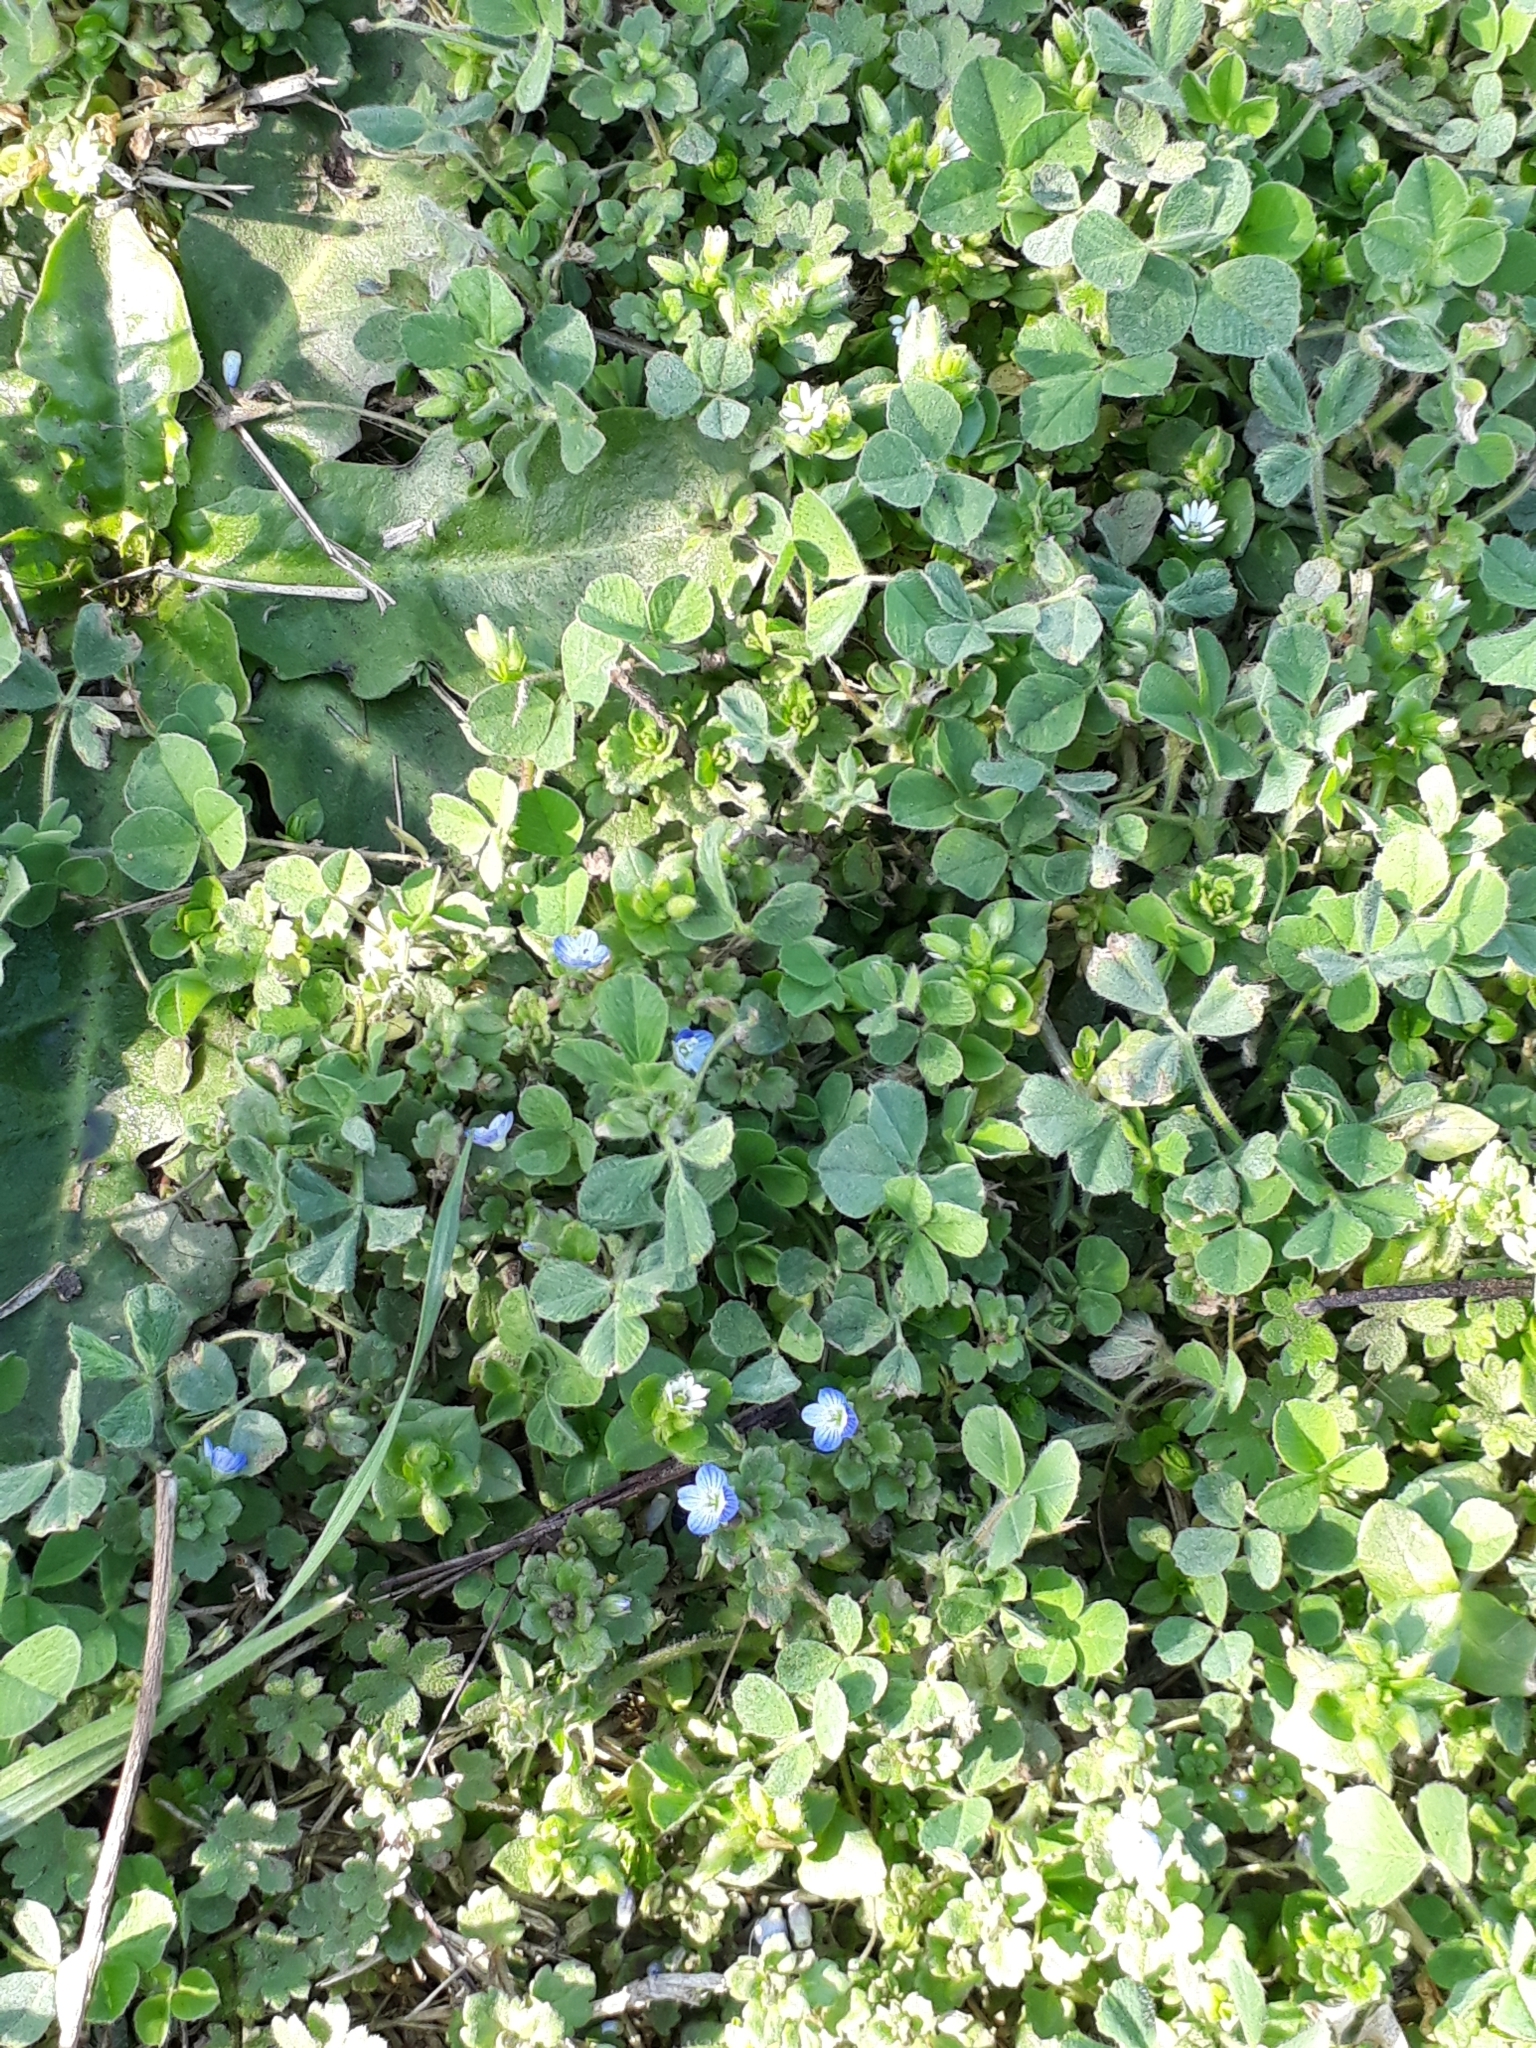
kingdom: Plantae
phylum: Tracheophyta
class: Magnoliopsida
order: Lamiales
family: Plantaginaceae
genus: Veronica
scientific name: Veronica persica
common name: Common field-speedwell
